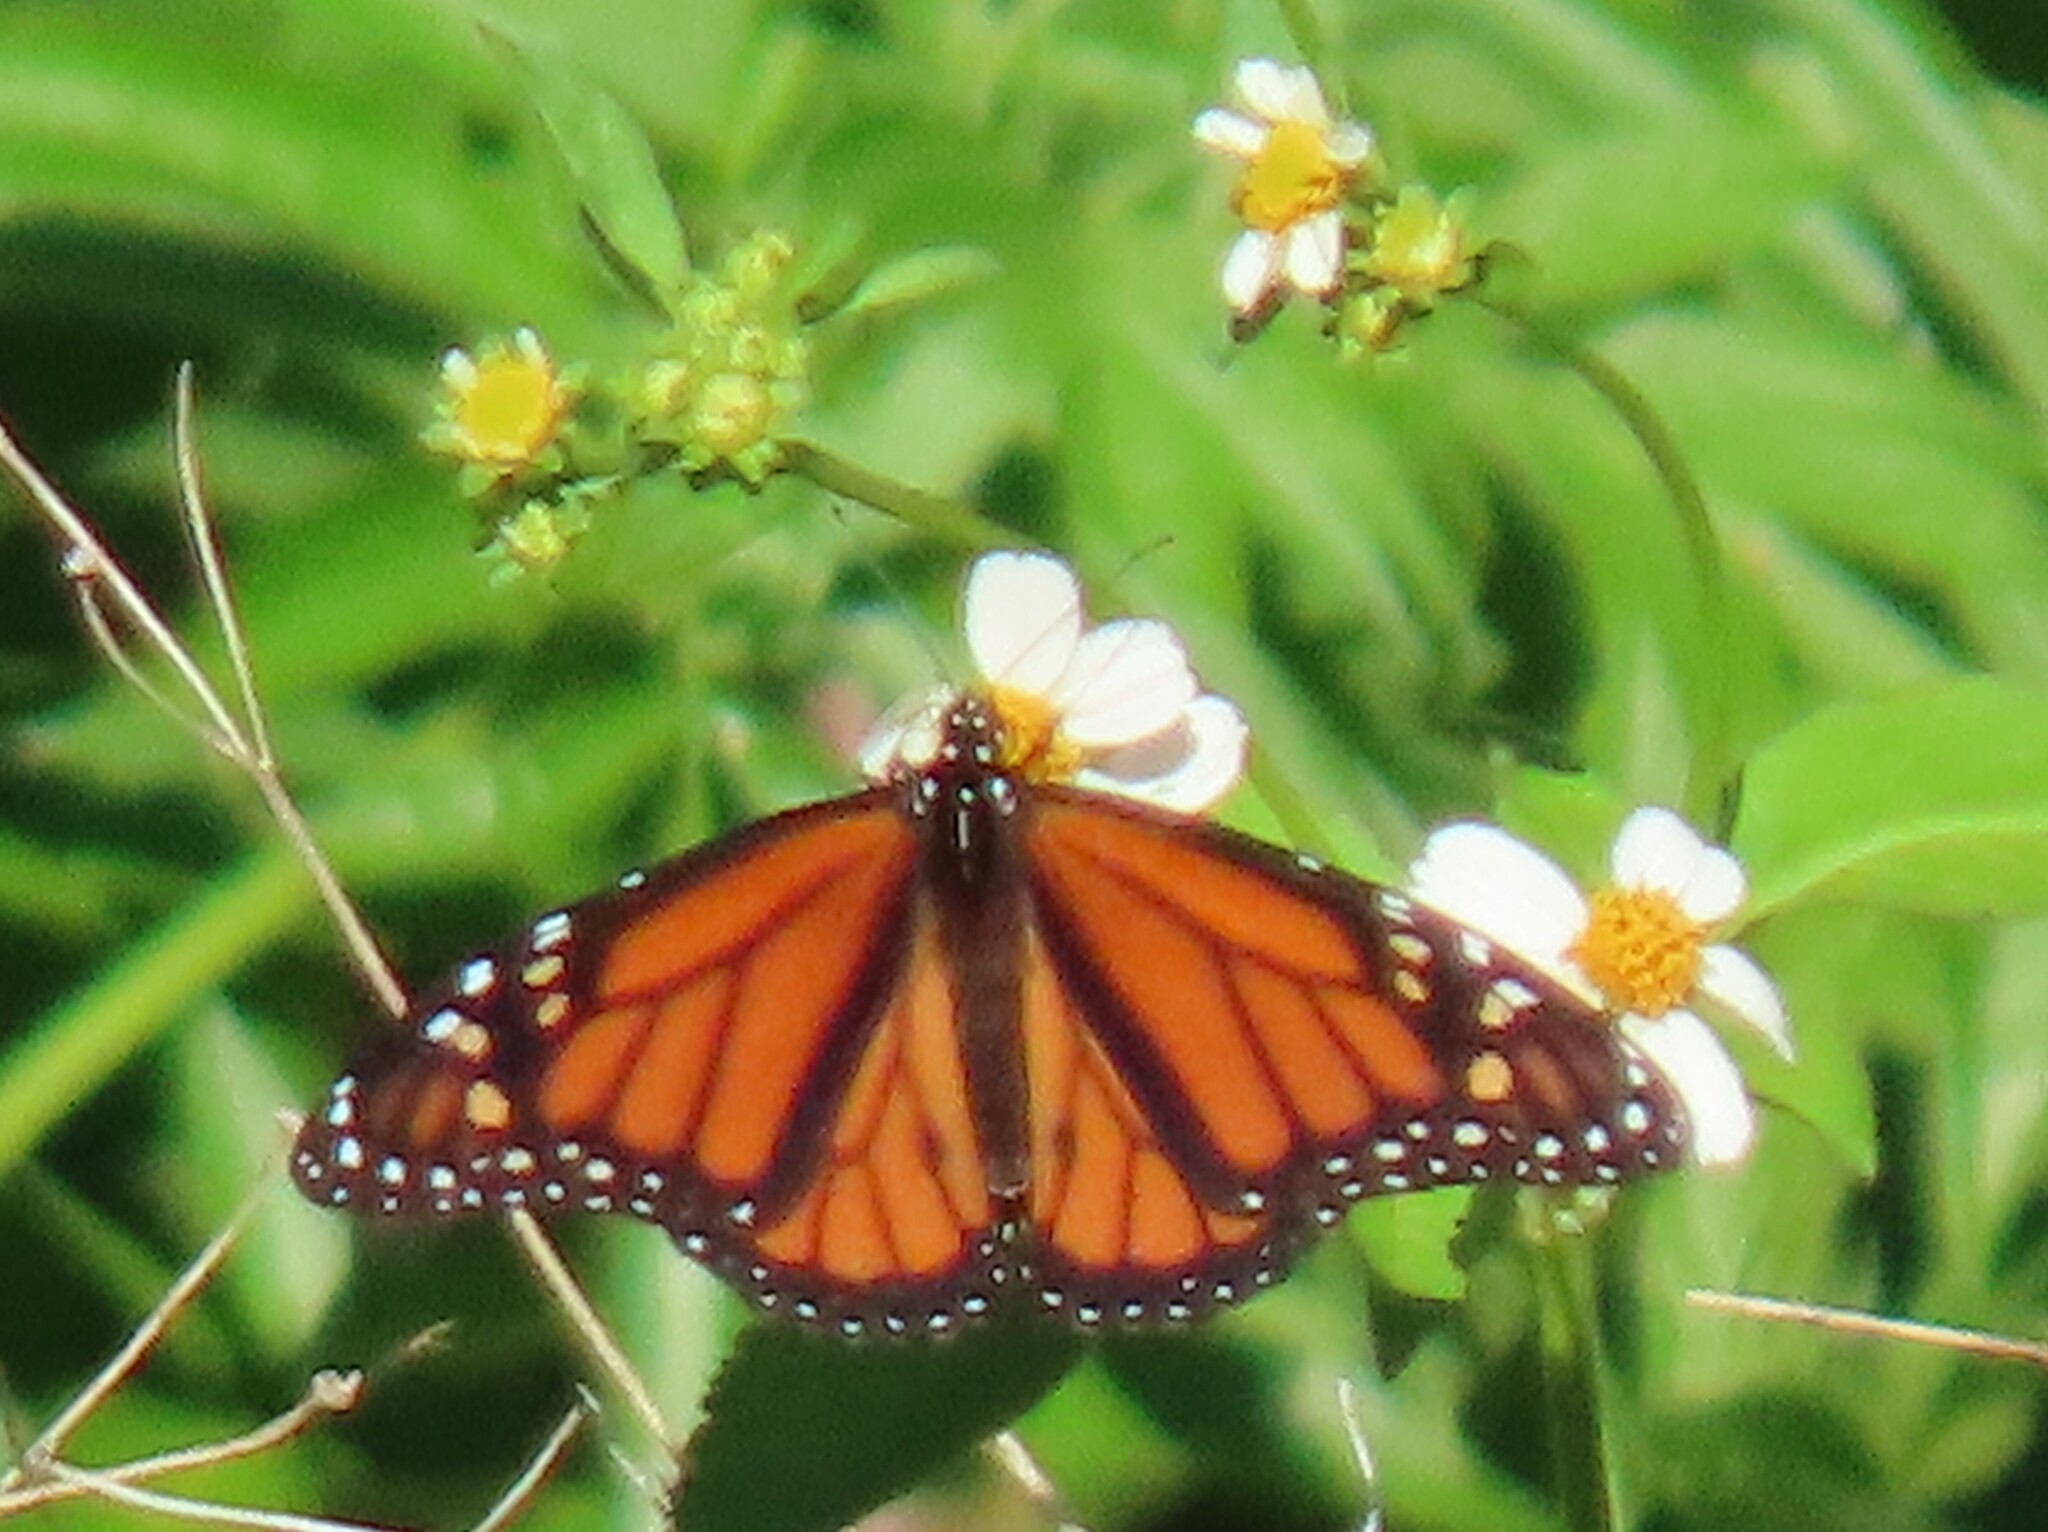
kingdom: Animalia
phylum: Arthropoda
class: Insecta
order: Lepidoptera
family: Nymphalidae
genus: Danaus
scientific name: Danaus plexippus
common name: Monarch
